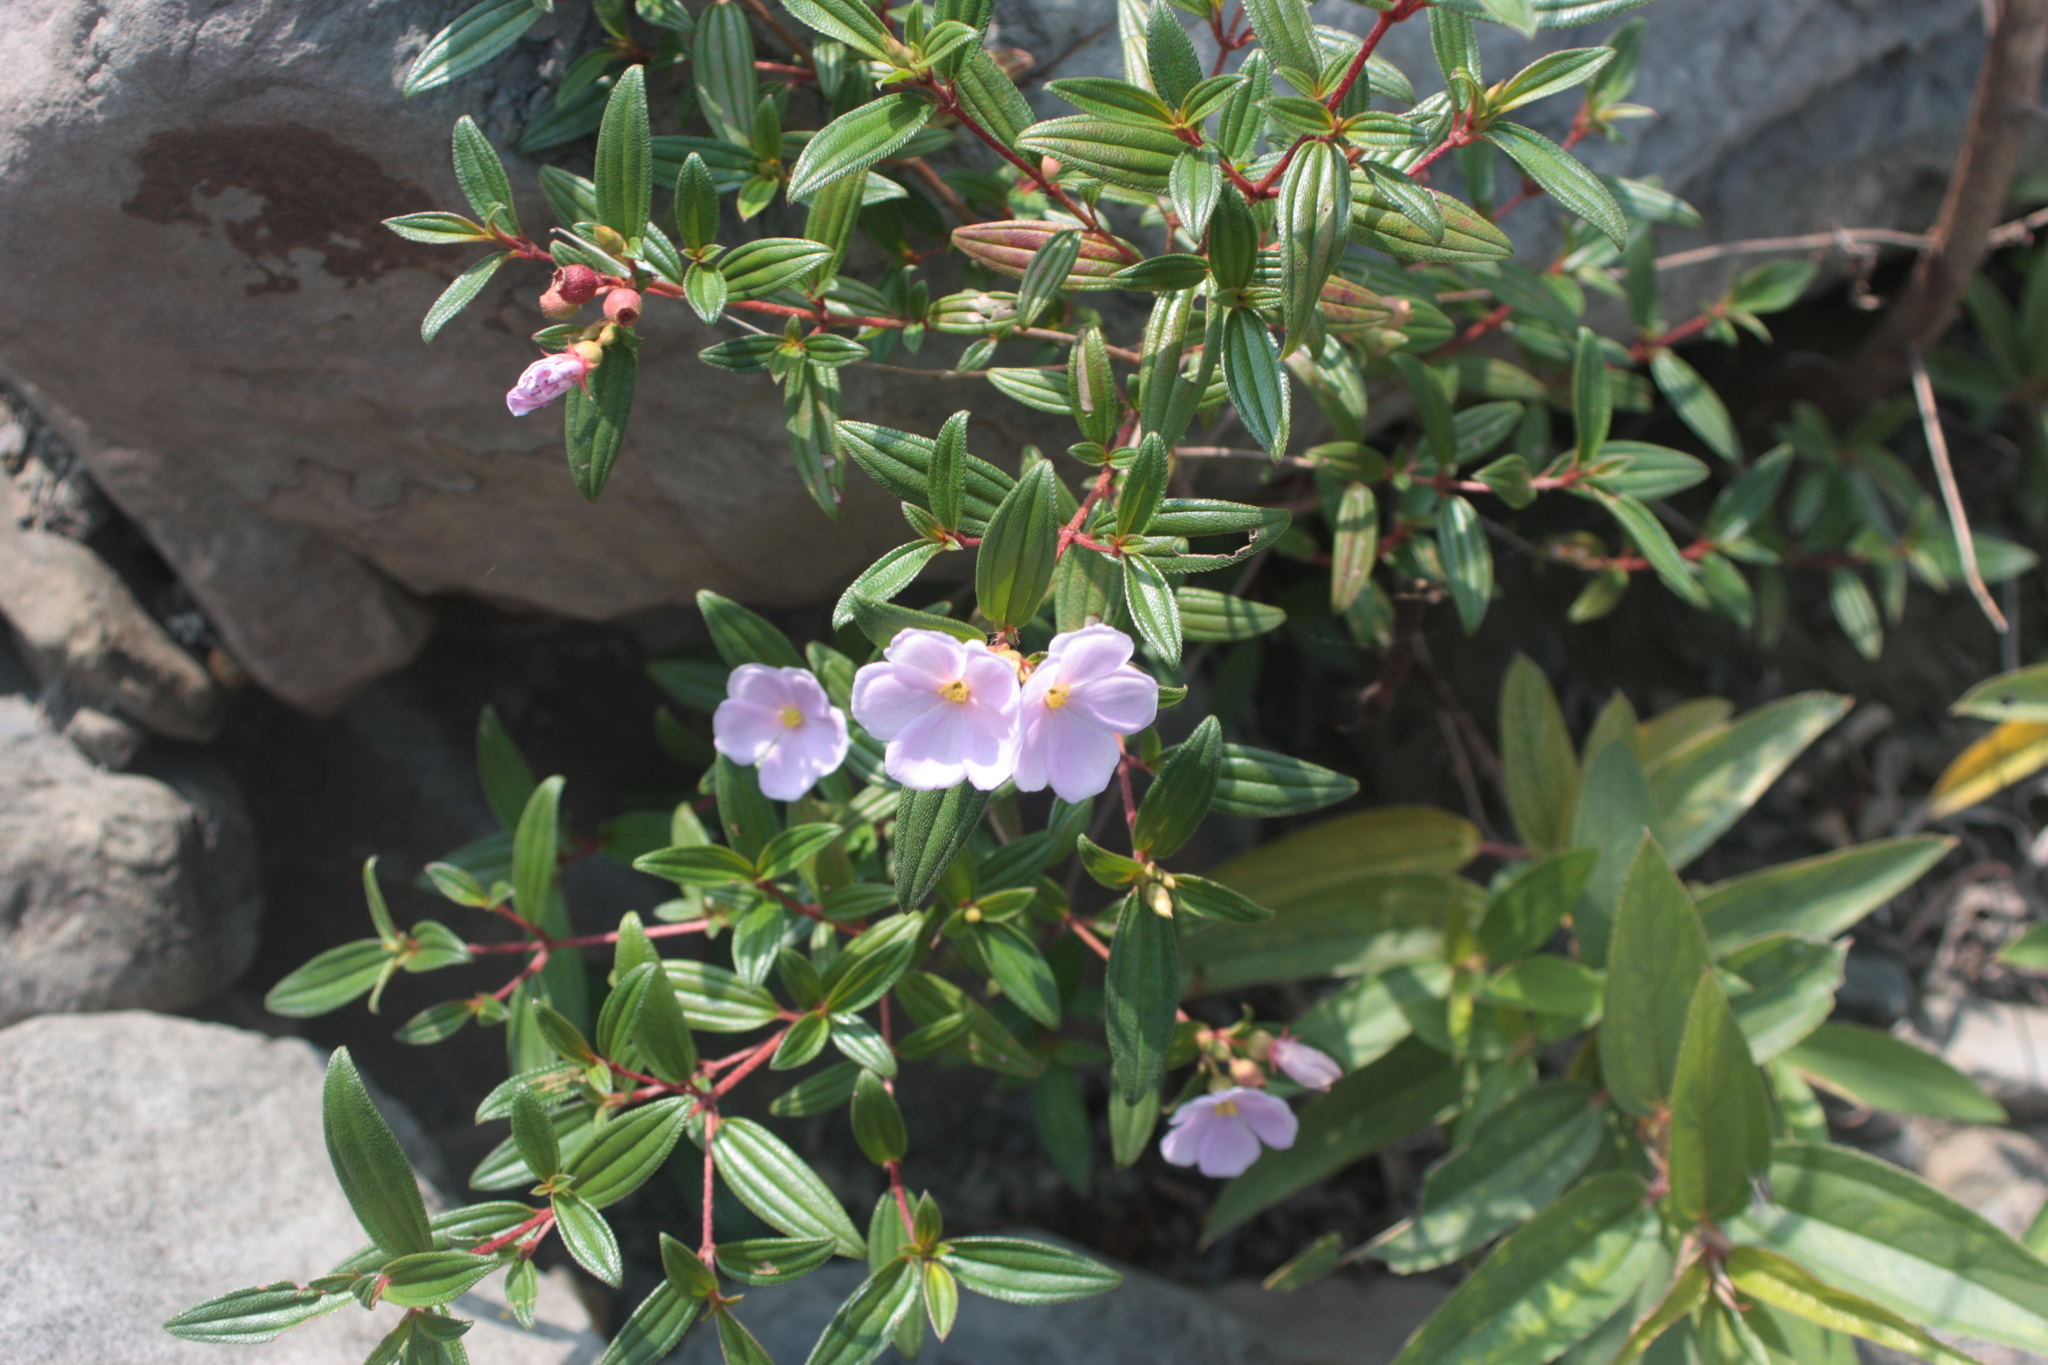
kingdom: Plantae
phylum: Tracheophyta
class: Magnoliopsida
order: Myrtales
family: Melastomataceae
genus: Melastoma
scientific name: Melastoma scaberrima
